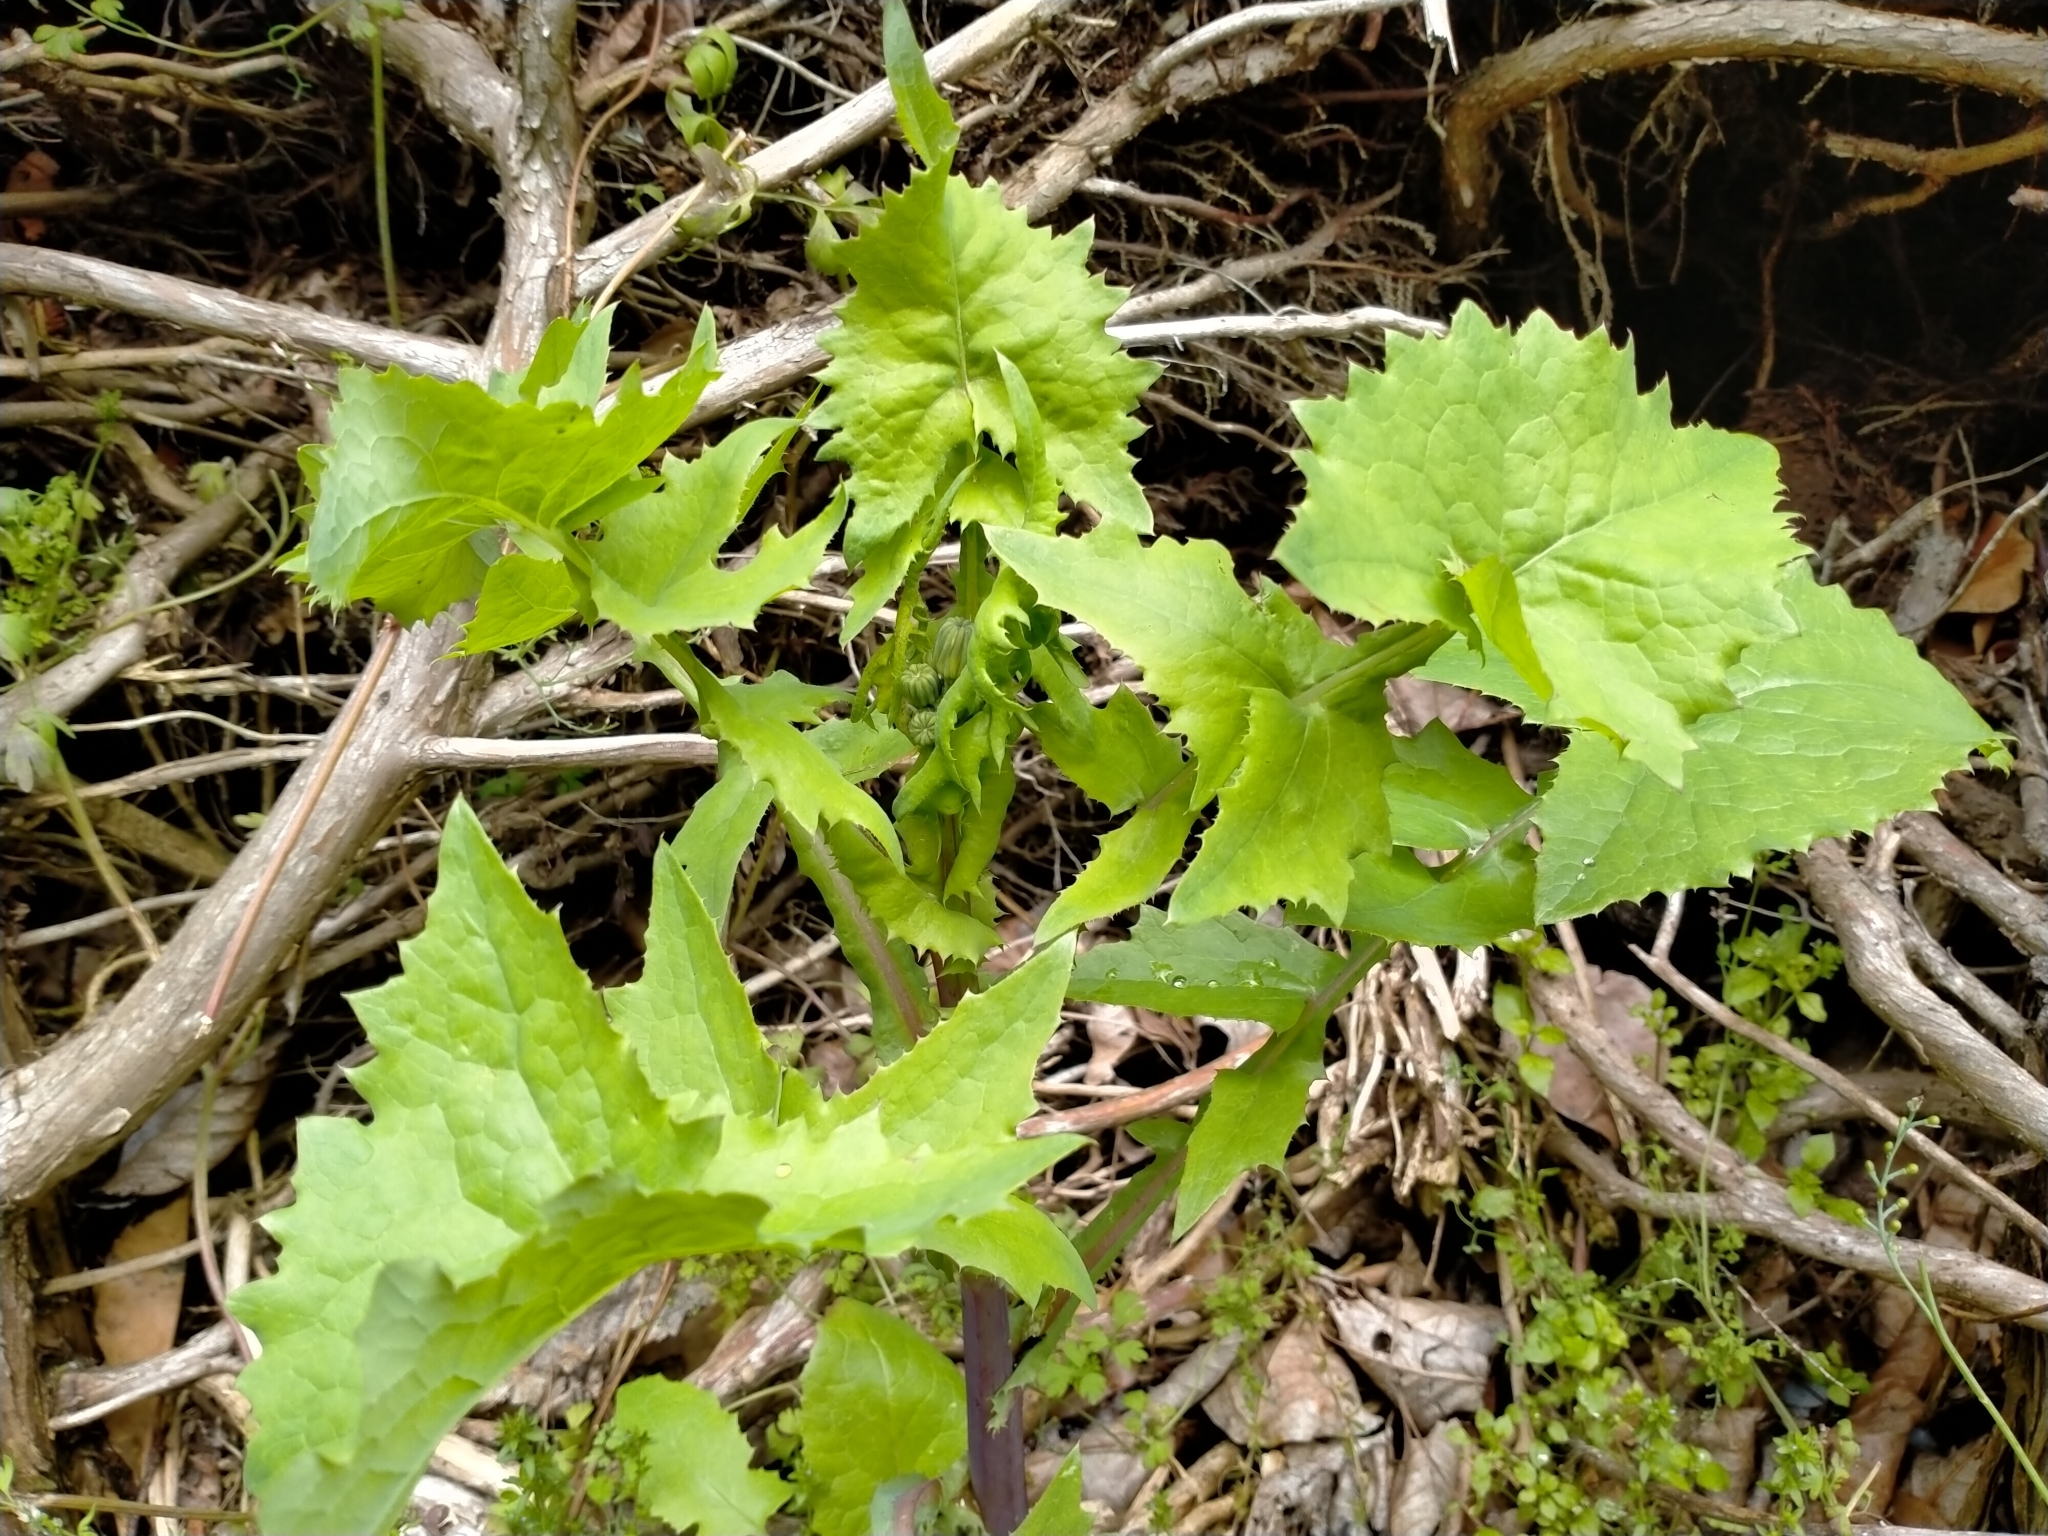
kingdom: Plantae
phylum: Tracheophyta
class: Magnoliopsida
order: Asterales
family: Asteraceae
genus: Sonchus
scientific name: Sonchus oleraceus
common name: Common sowthistle
